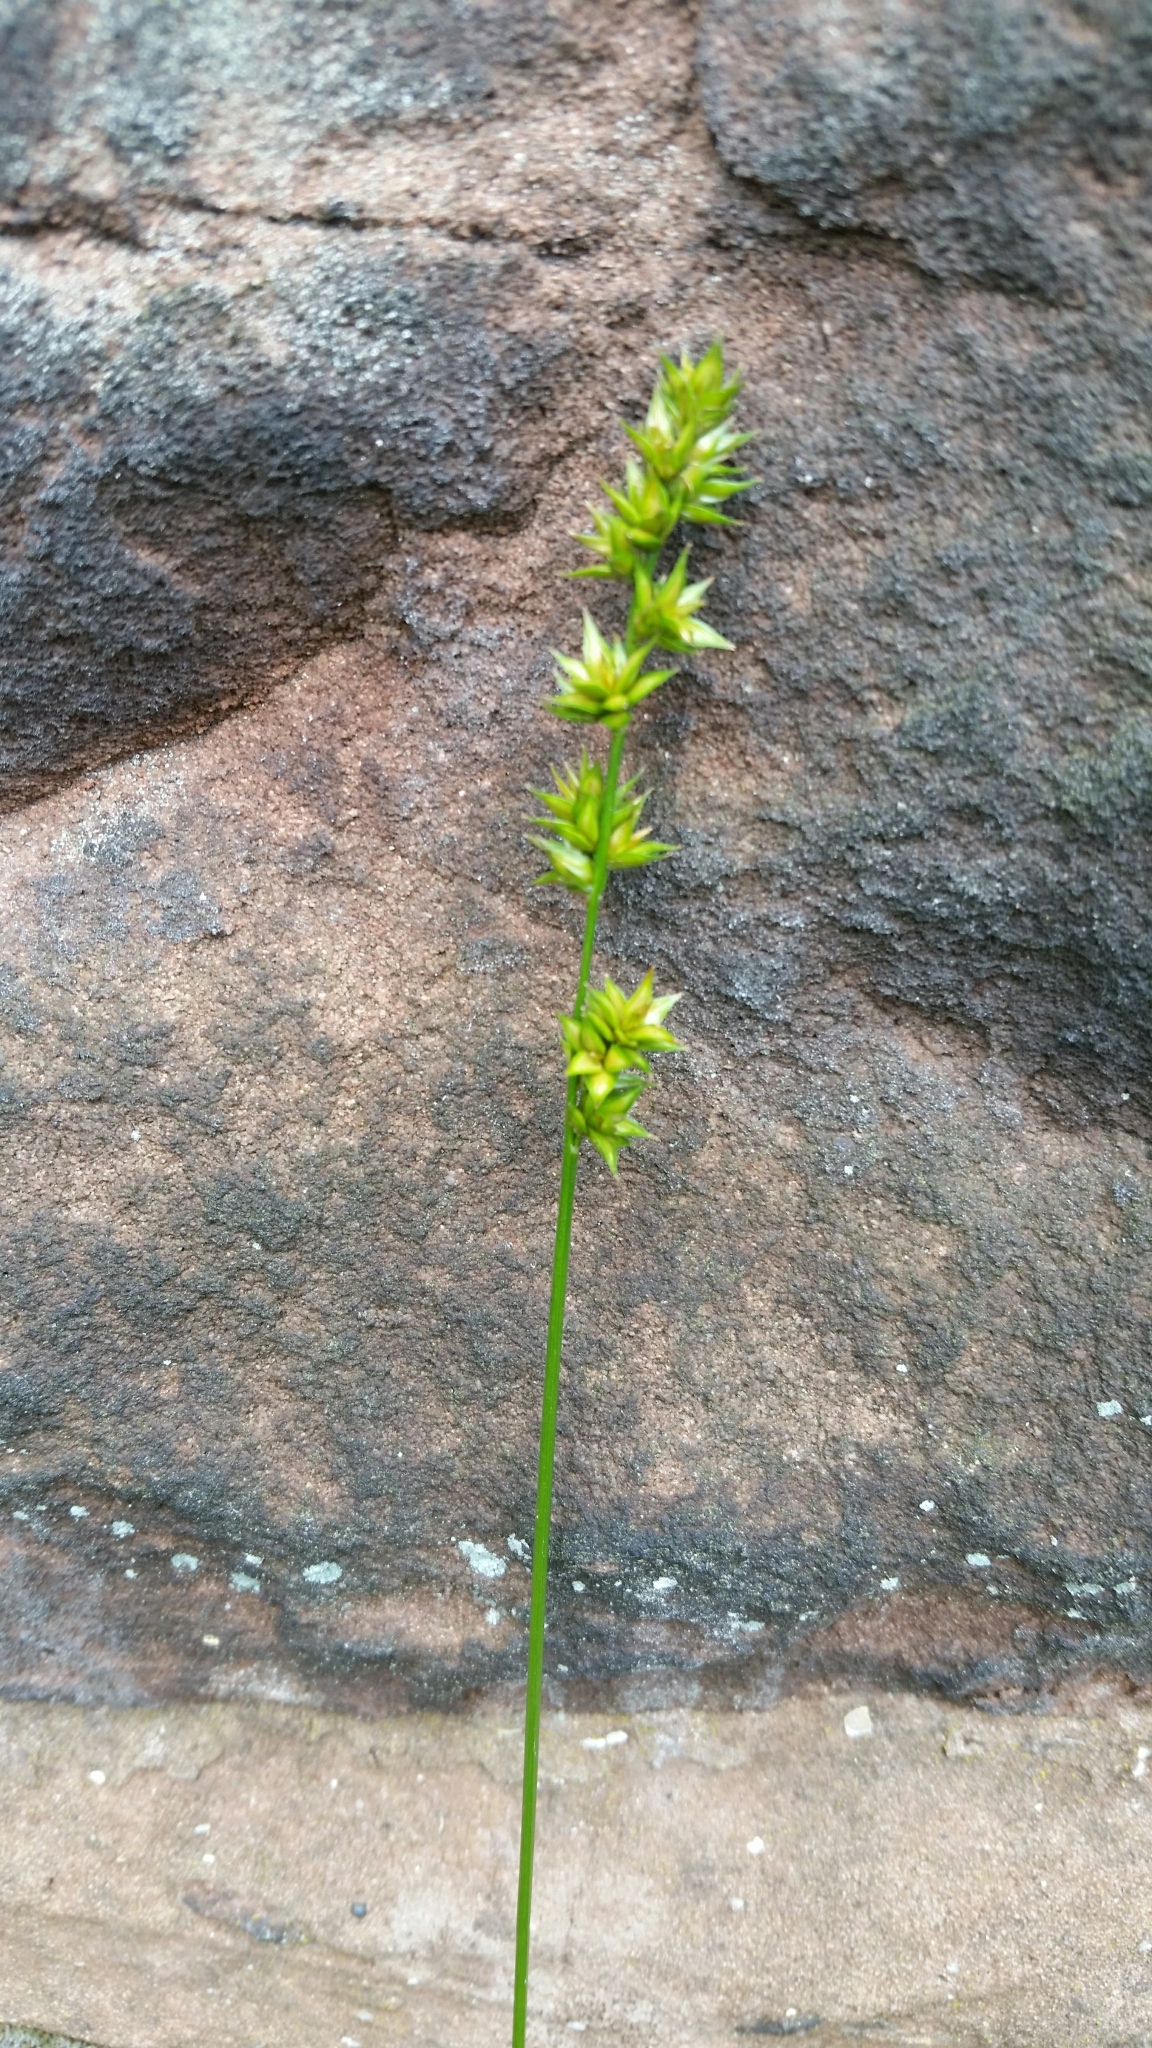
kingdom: Plantae
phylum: Tracheophyta
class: Liliopsida
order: Poales
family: Cyperaceae
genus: Carex
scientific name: Carex divulsa
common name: Grassland sedge
